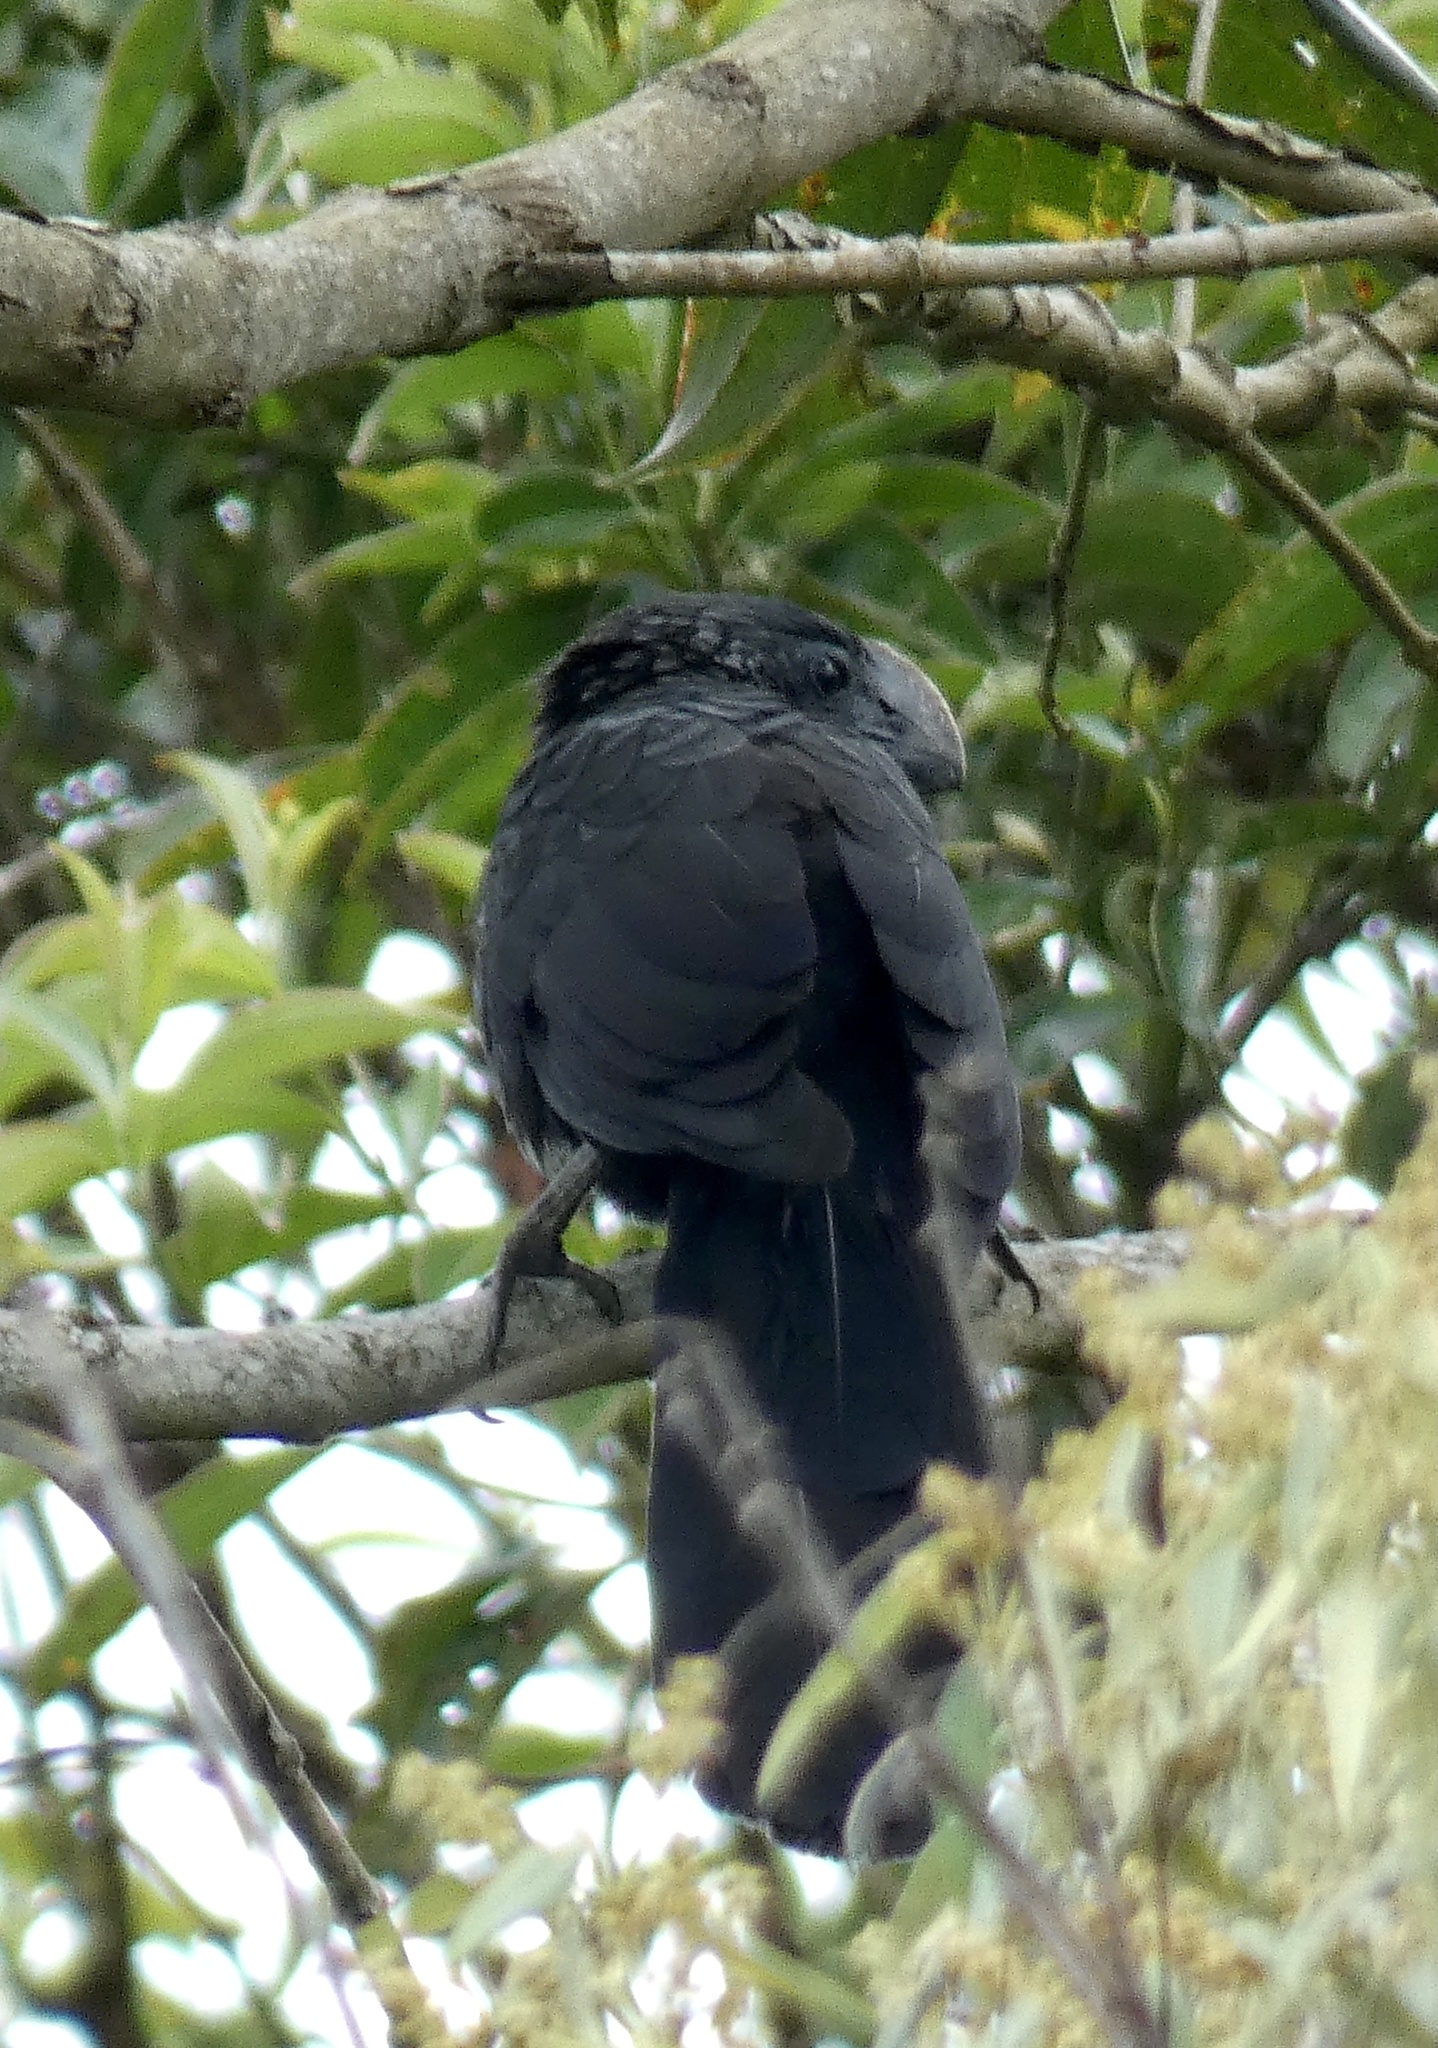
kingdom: Animalia
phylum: Chordata
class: Aves
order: Cuculiformes
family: Cuculidae
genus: Crotophaga
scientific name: Crotophaga ani
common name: Smooth-billed ani
